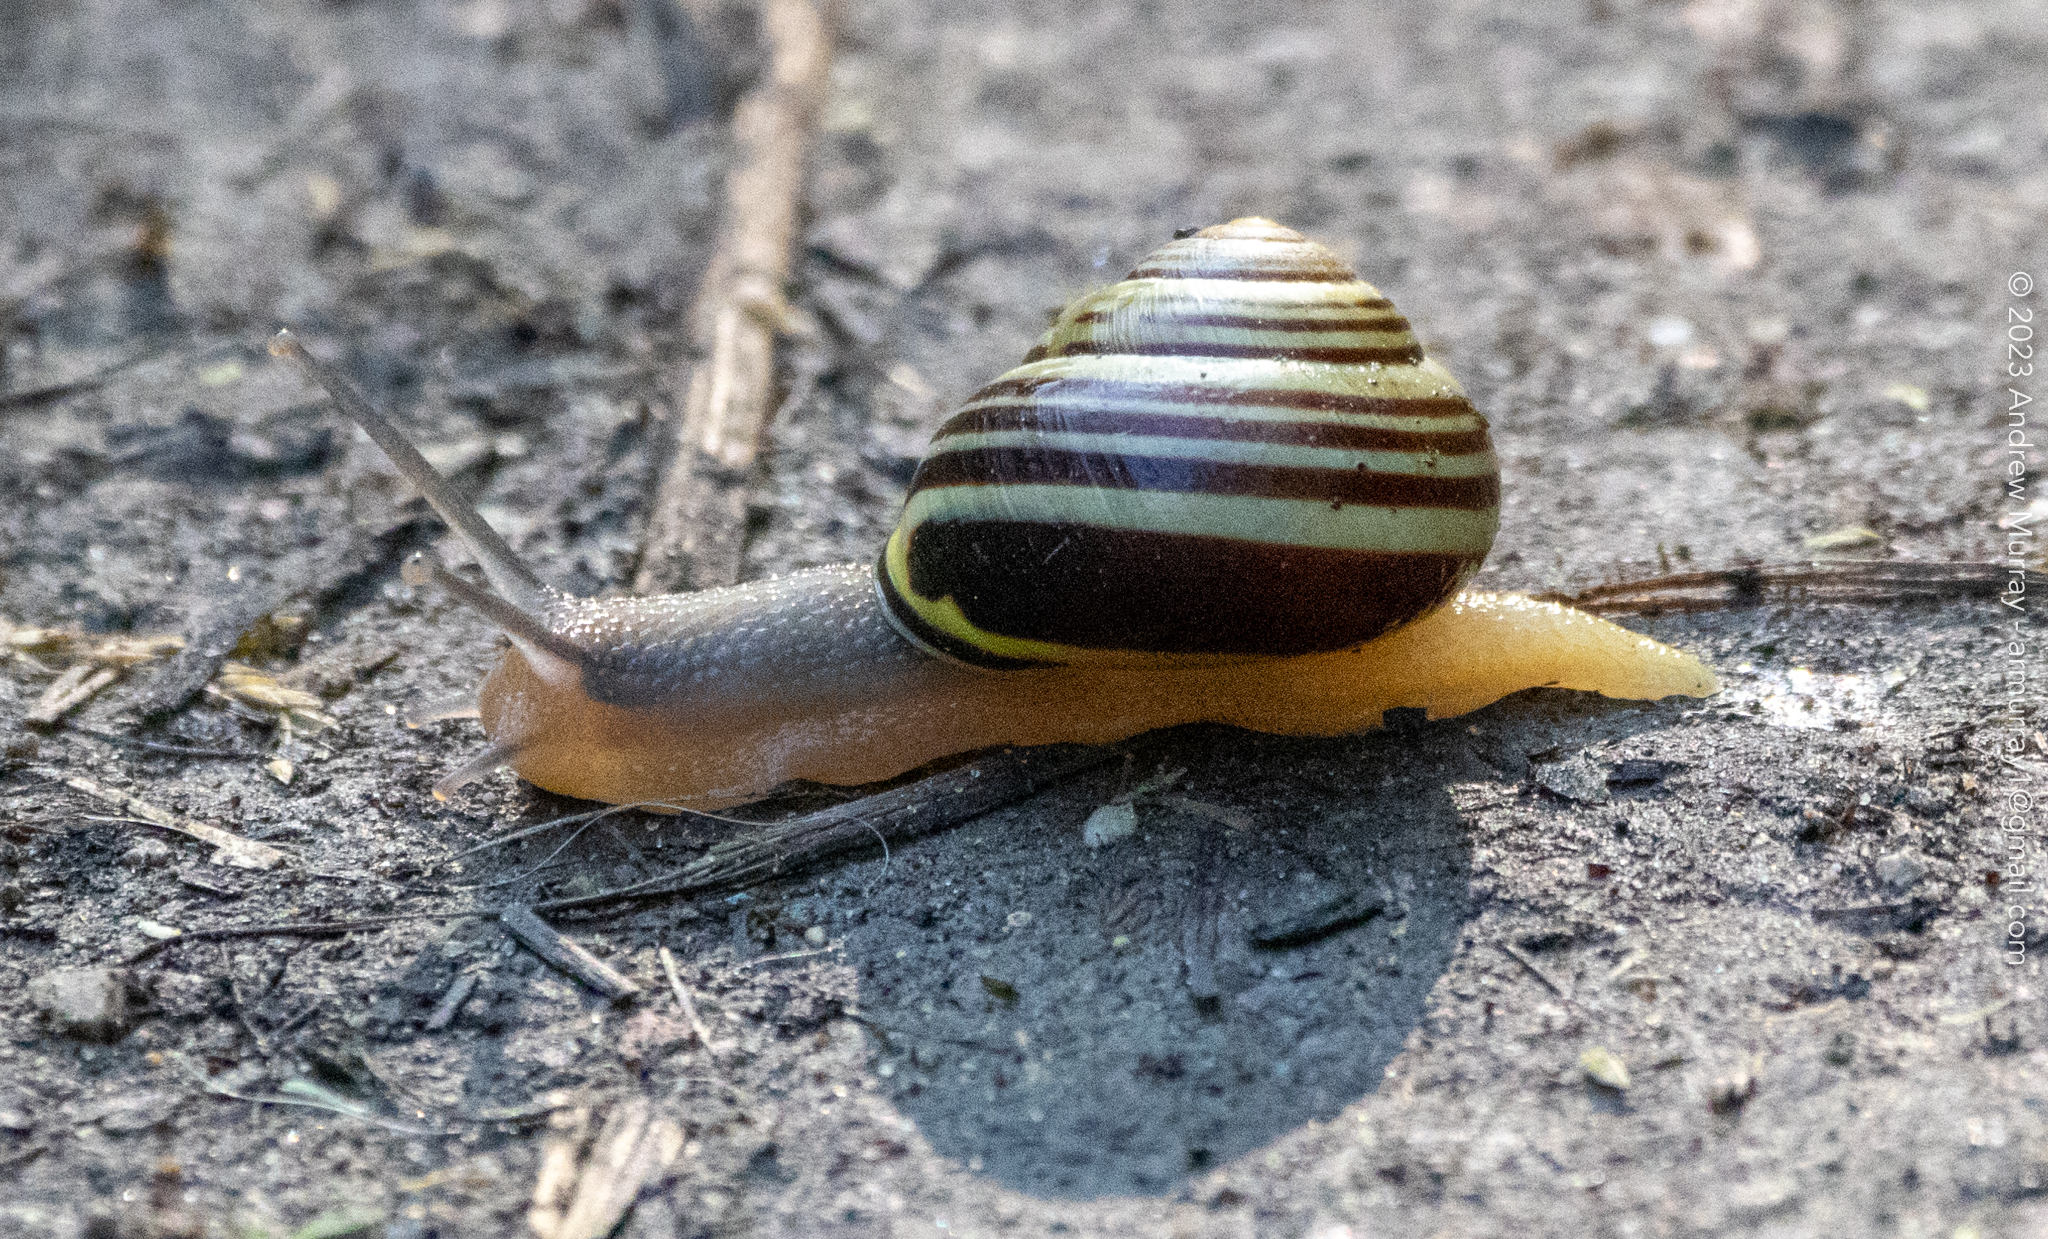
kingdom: Animalia
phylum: Mollusca
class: Gastropoda
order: Stylommatophora
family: Helicidae
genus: Cepaea
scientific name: Cepaea nemoralis
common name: Grovesnail
